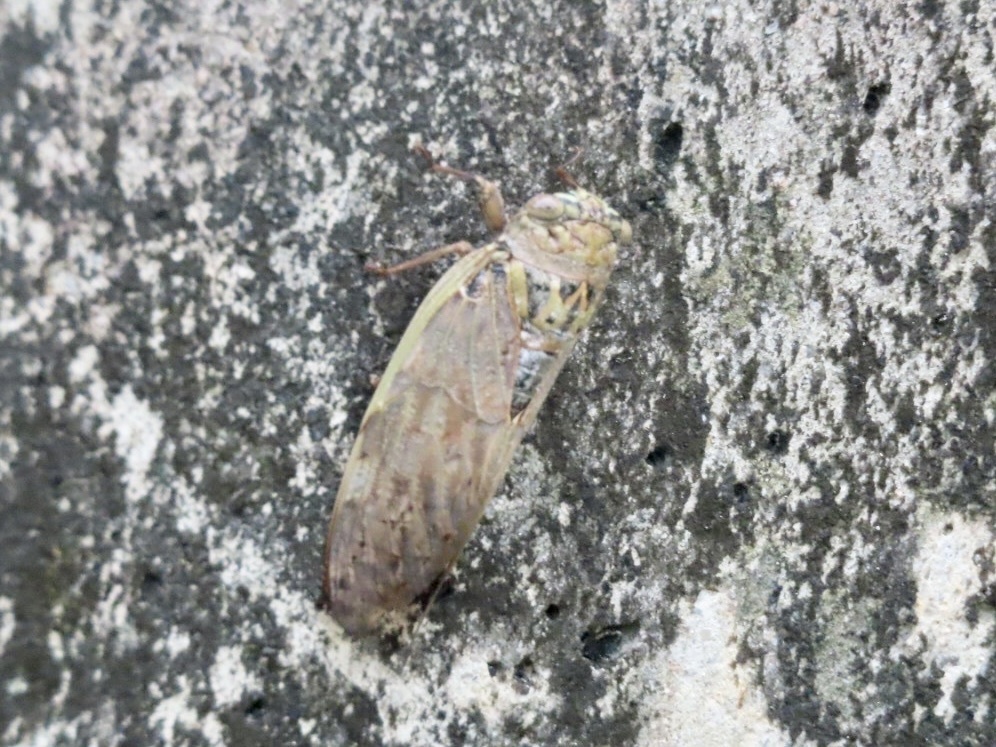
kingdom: Animalia
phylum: Arthropoda
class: Insecta
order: Hemiptera
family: Cicadidae
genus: Platypleura
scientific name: Platypleura hilpa
